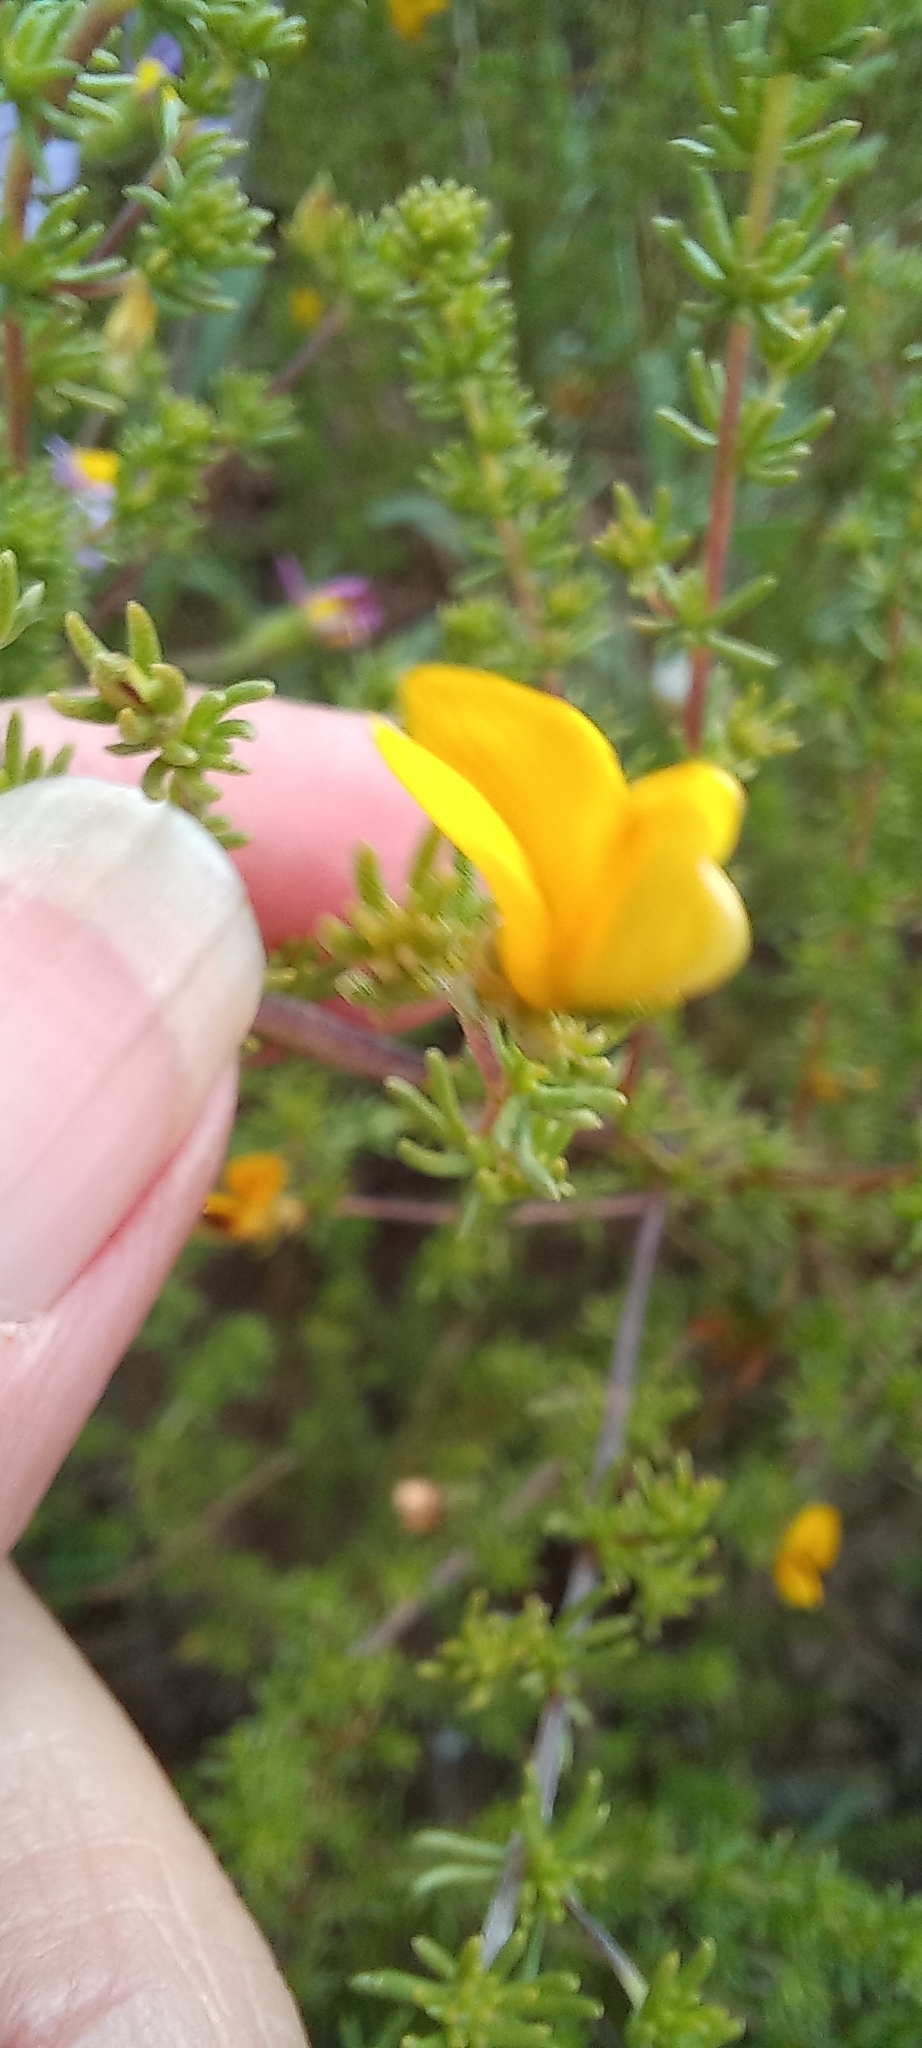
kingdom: Plantae
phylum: Tracheophyta
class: Magnoliopsida
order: Fabales
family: Fabaceae
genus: Aspalathus
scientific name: Aspalathus amoena
